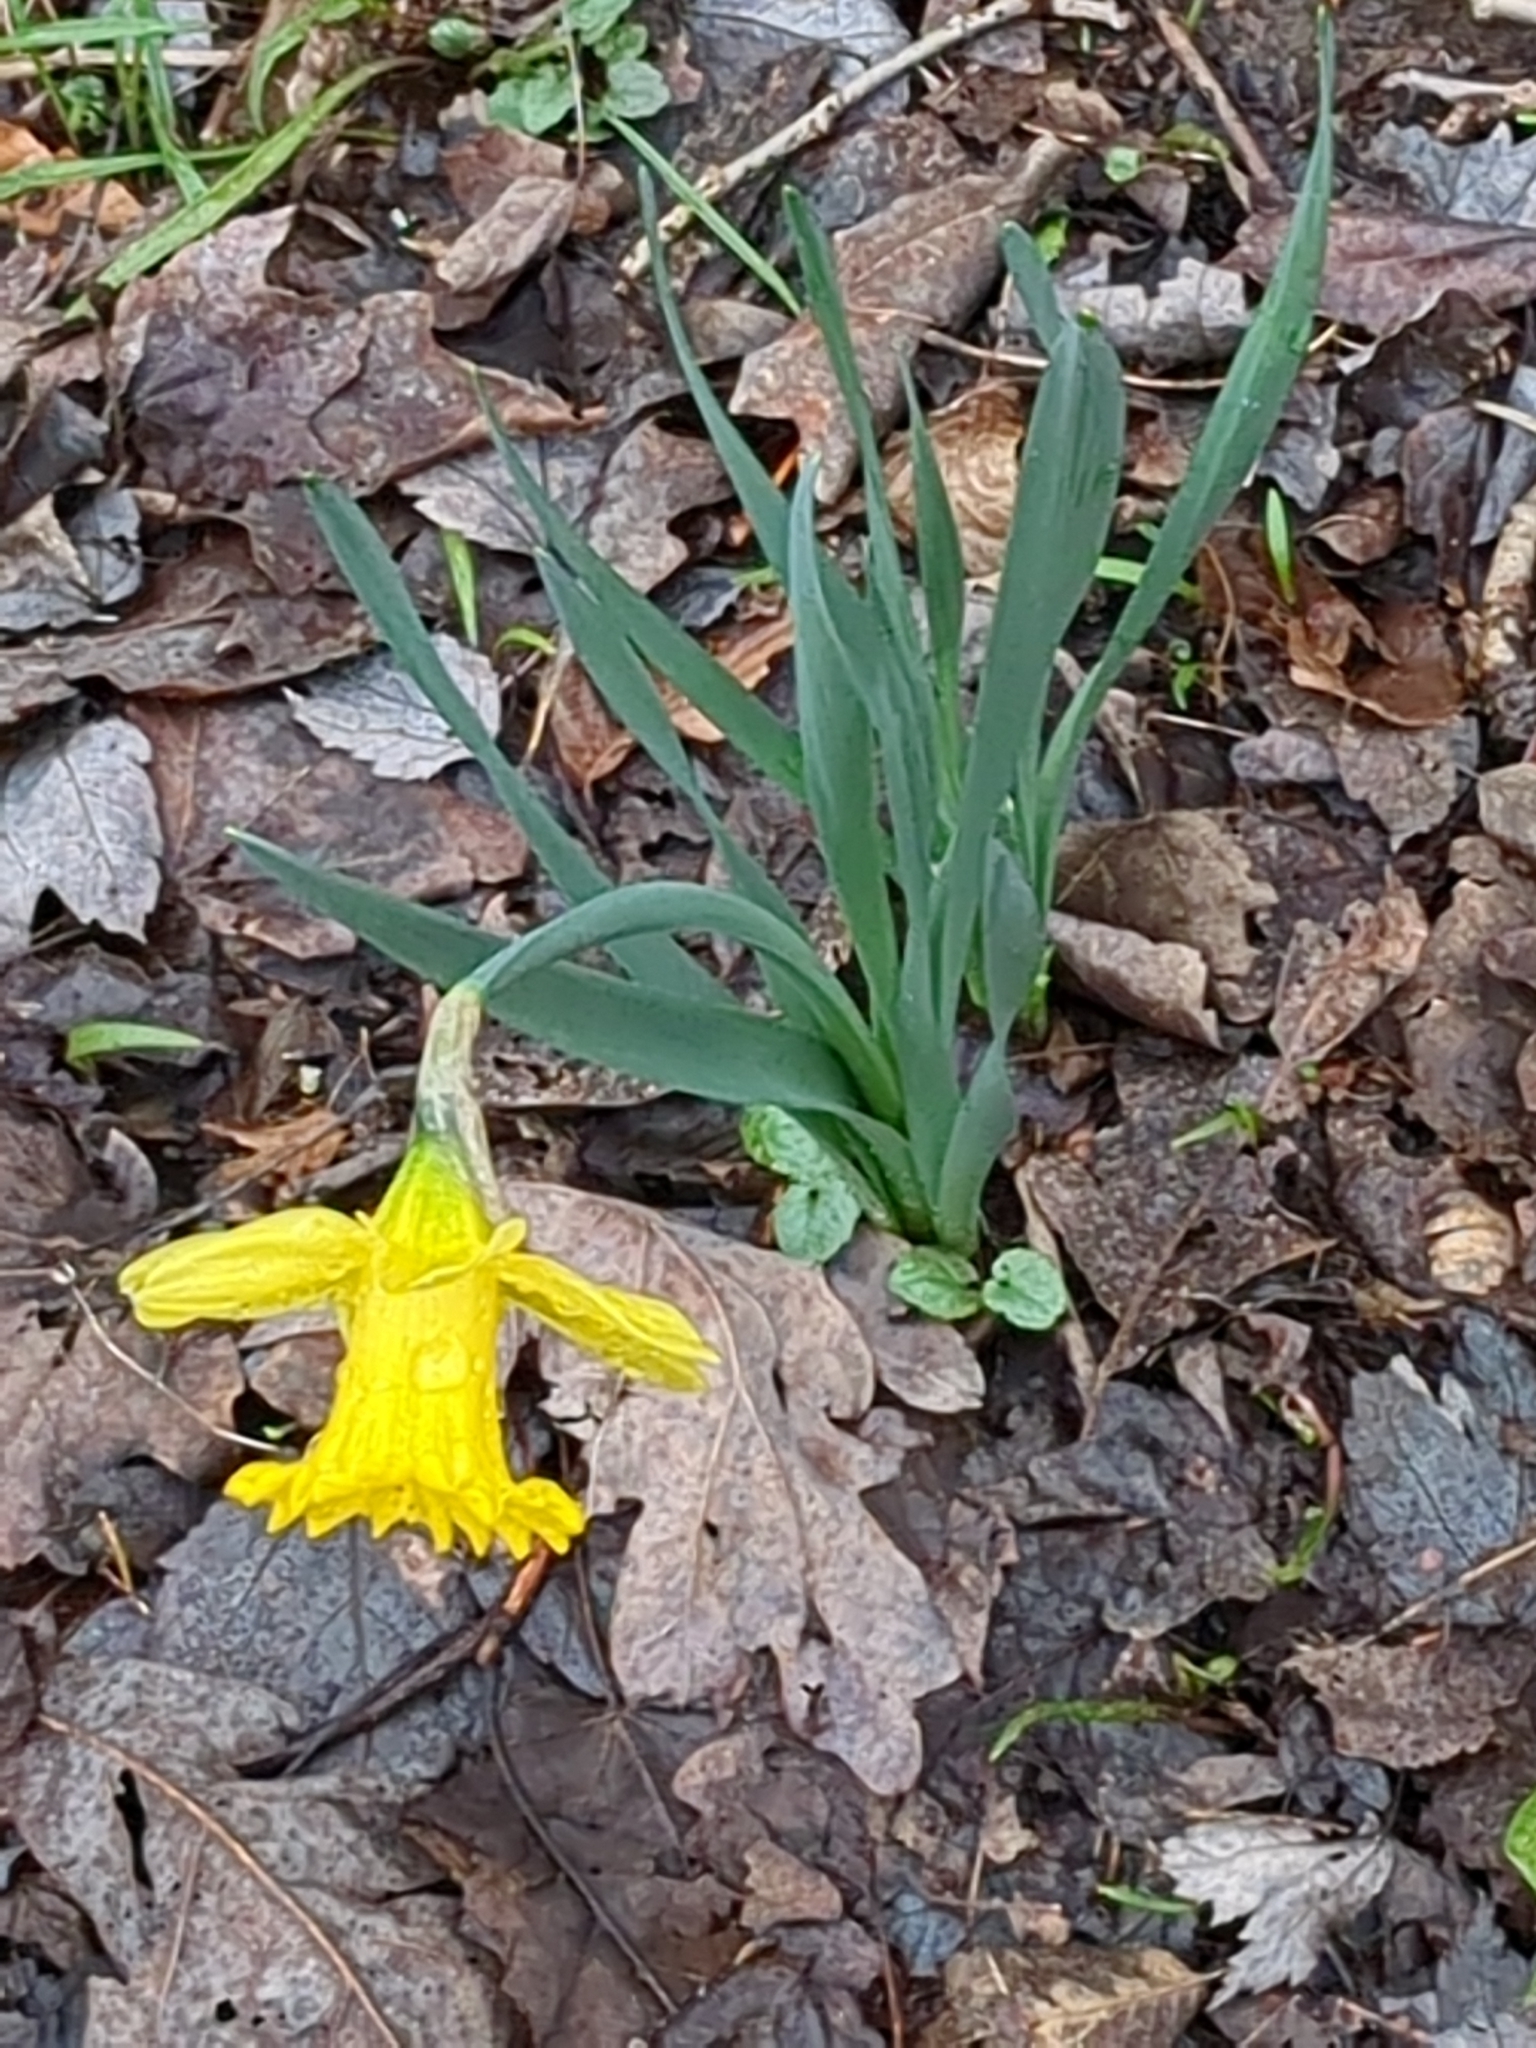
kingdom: Plantae
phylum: Tracheophyta
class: Liliopsida
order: Asparagales
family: Amaryllidaceae
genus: Narcissus
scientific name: Narcissus pseudonarcissus
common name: Daffodil
